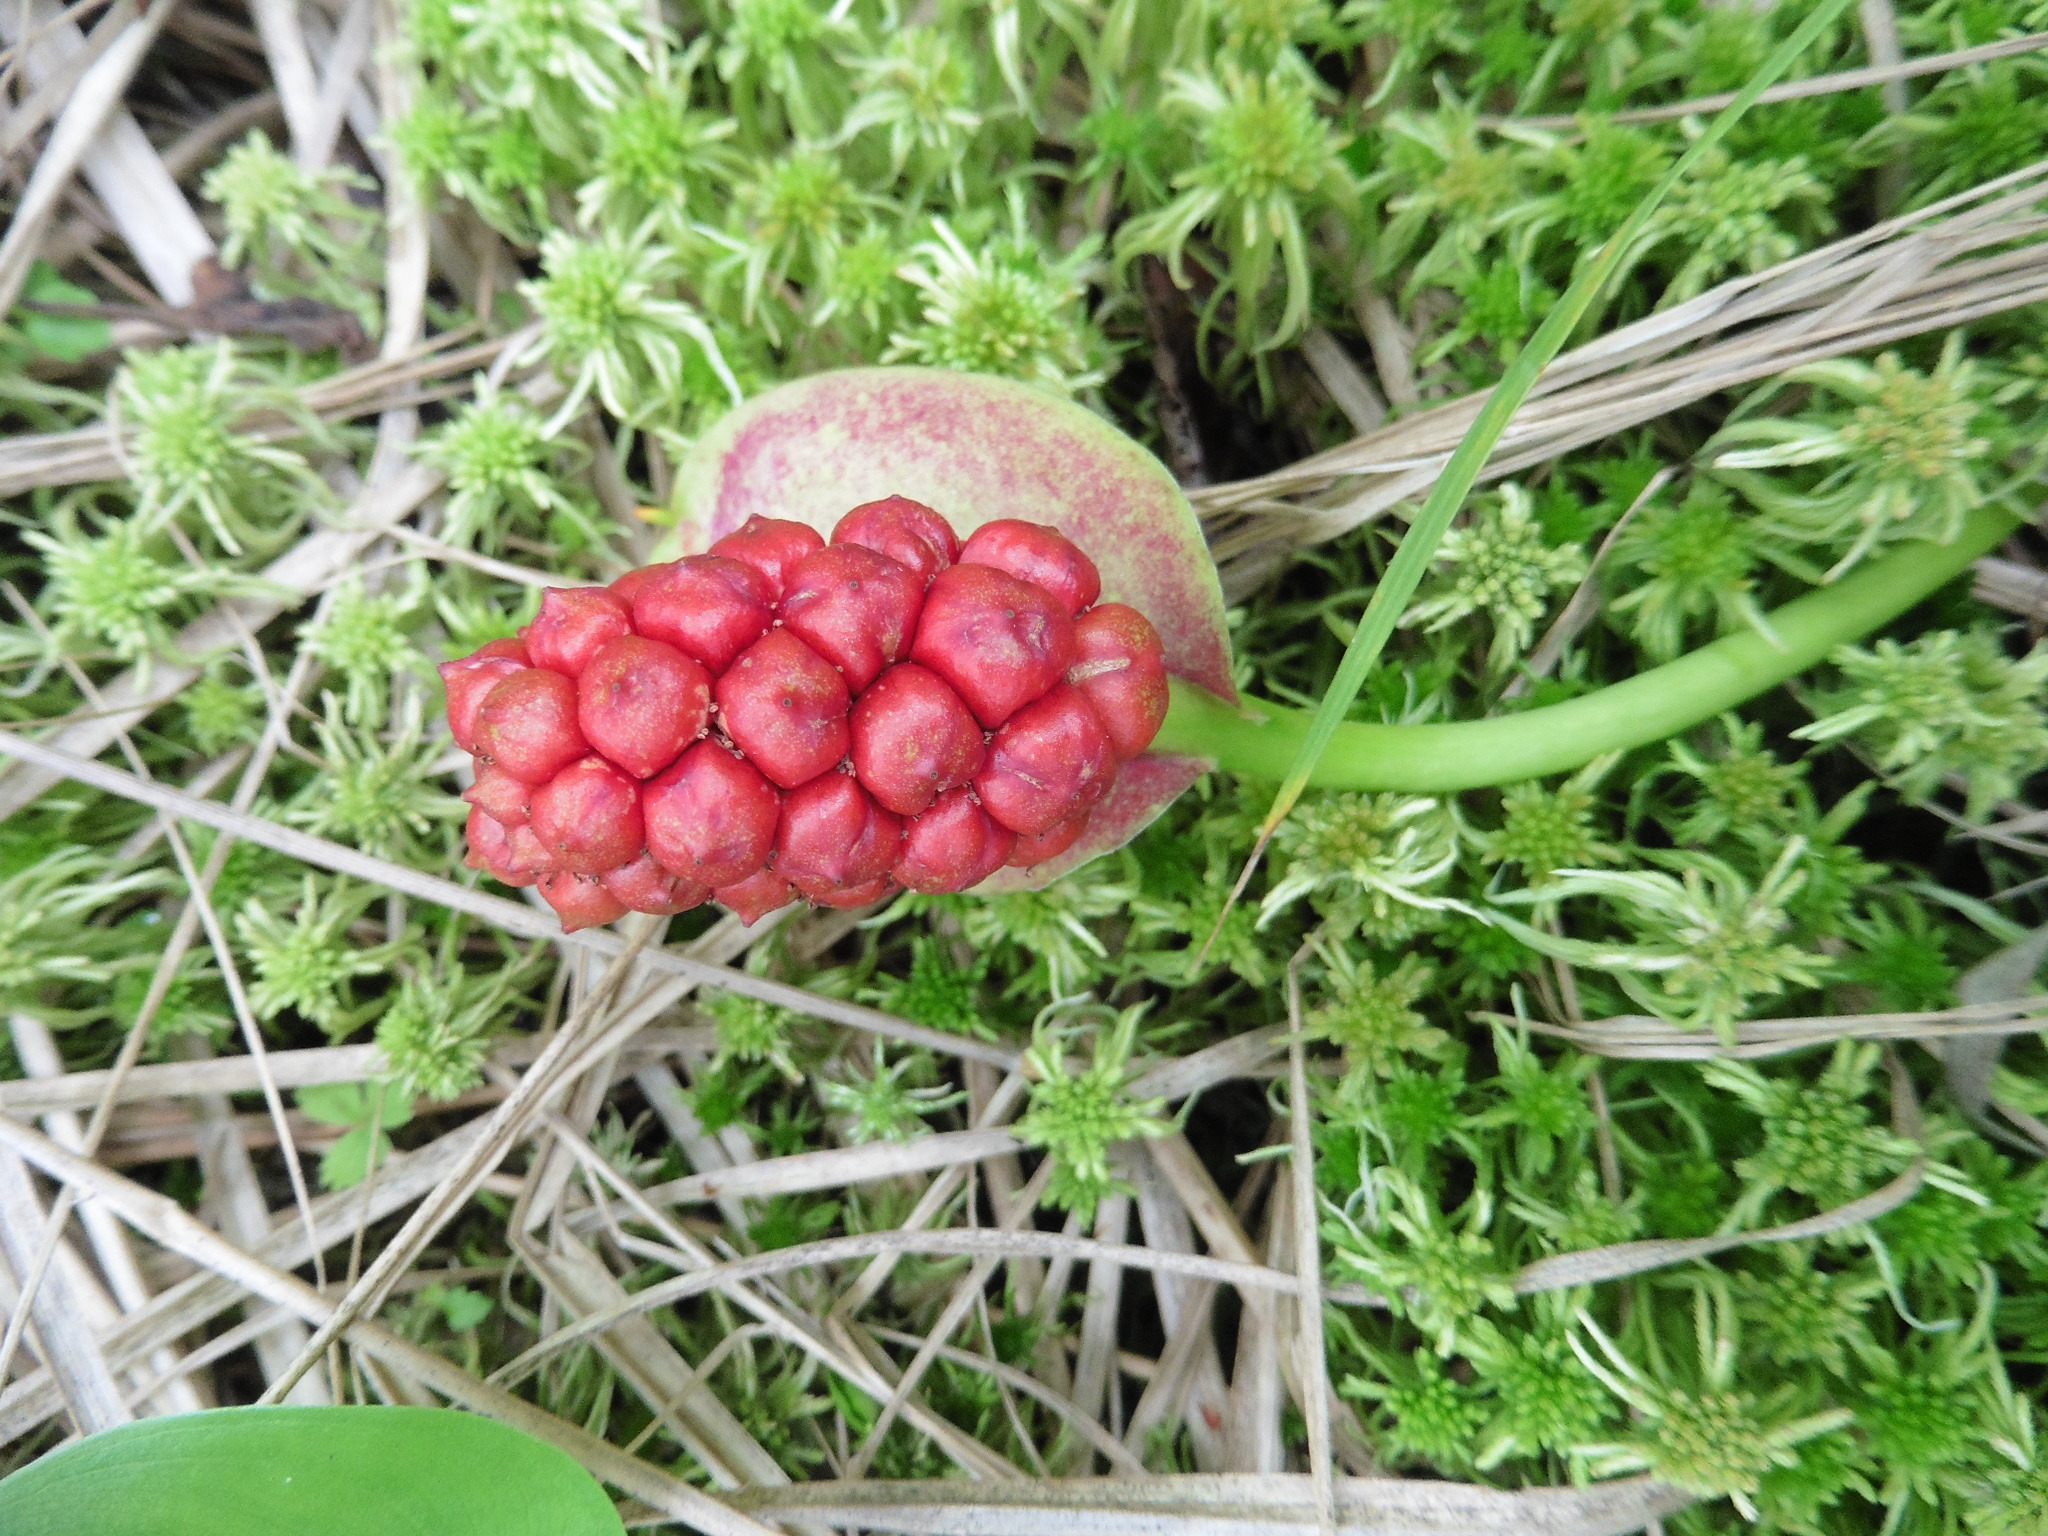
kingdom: Plantae
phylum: Tracheophyta
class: Liliopsida
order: Alismatales
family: Araceae
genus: Calla
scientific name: Calla palustris
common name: Bog arum
